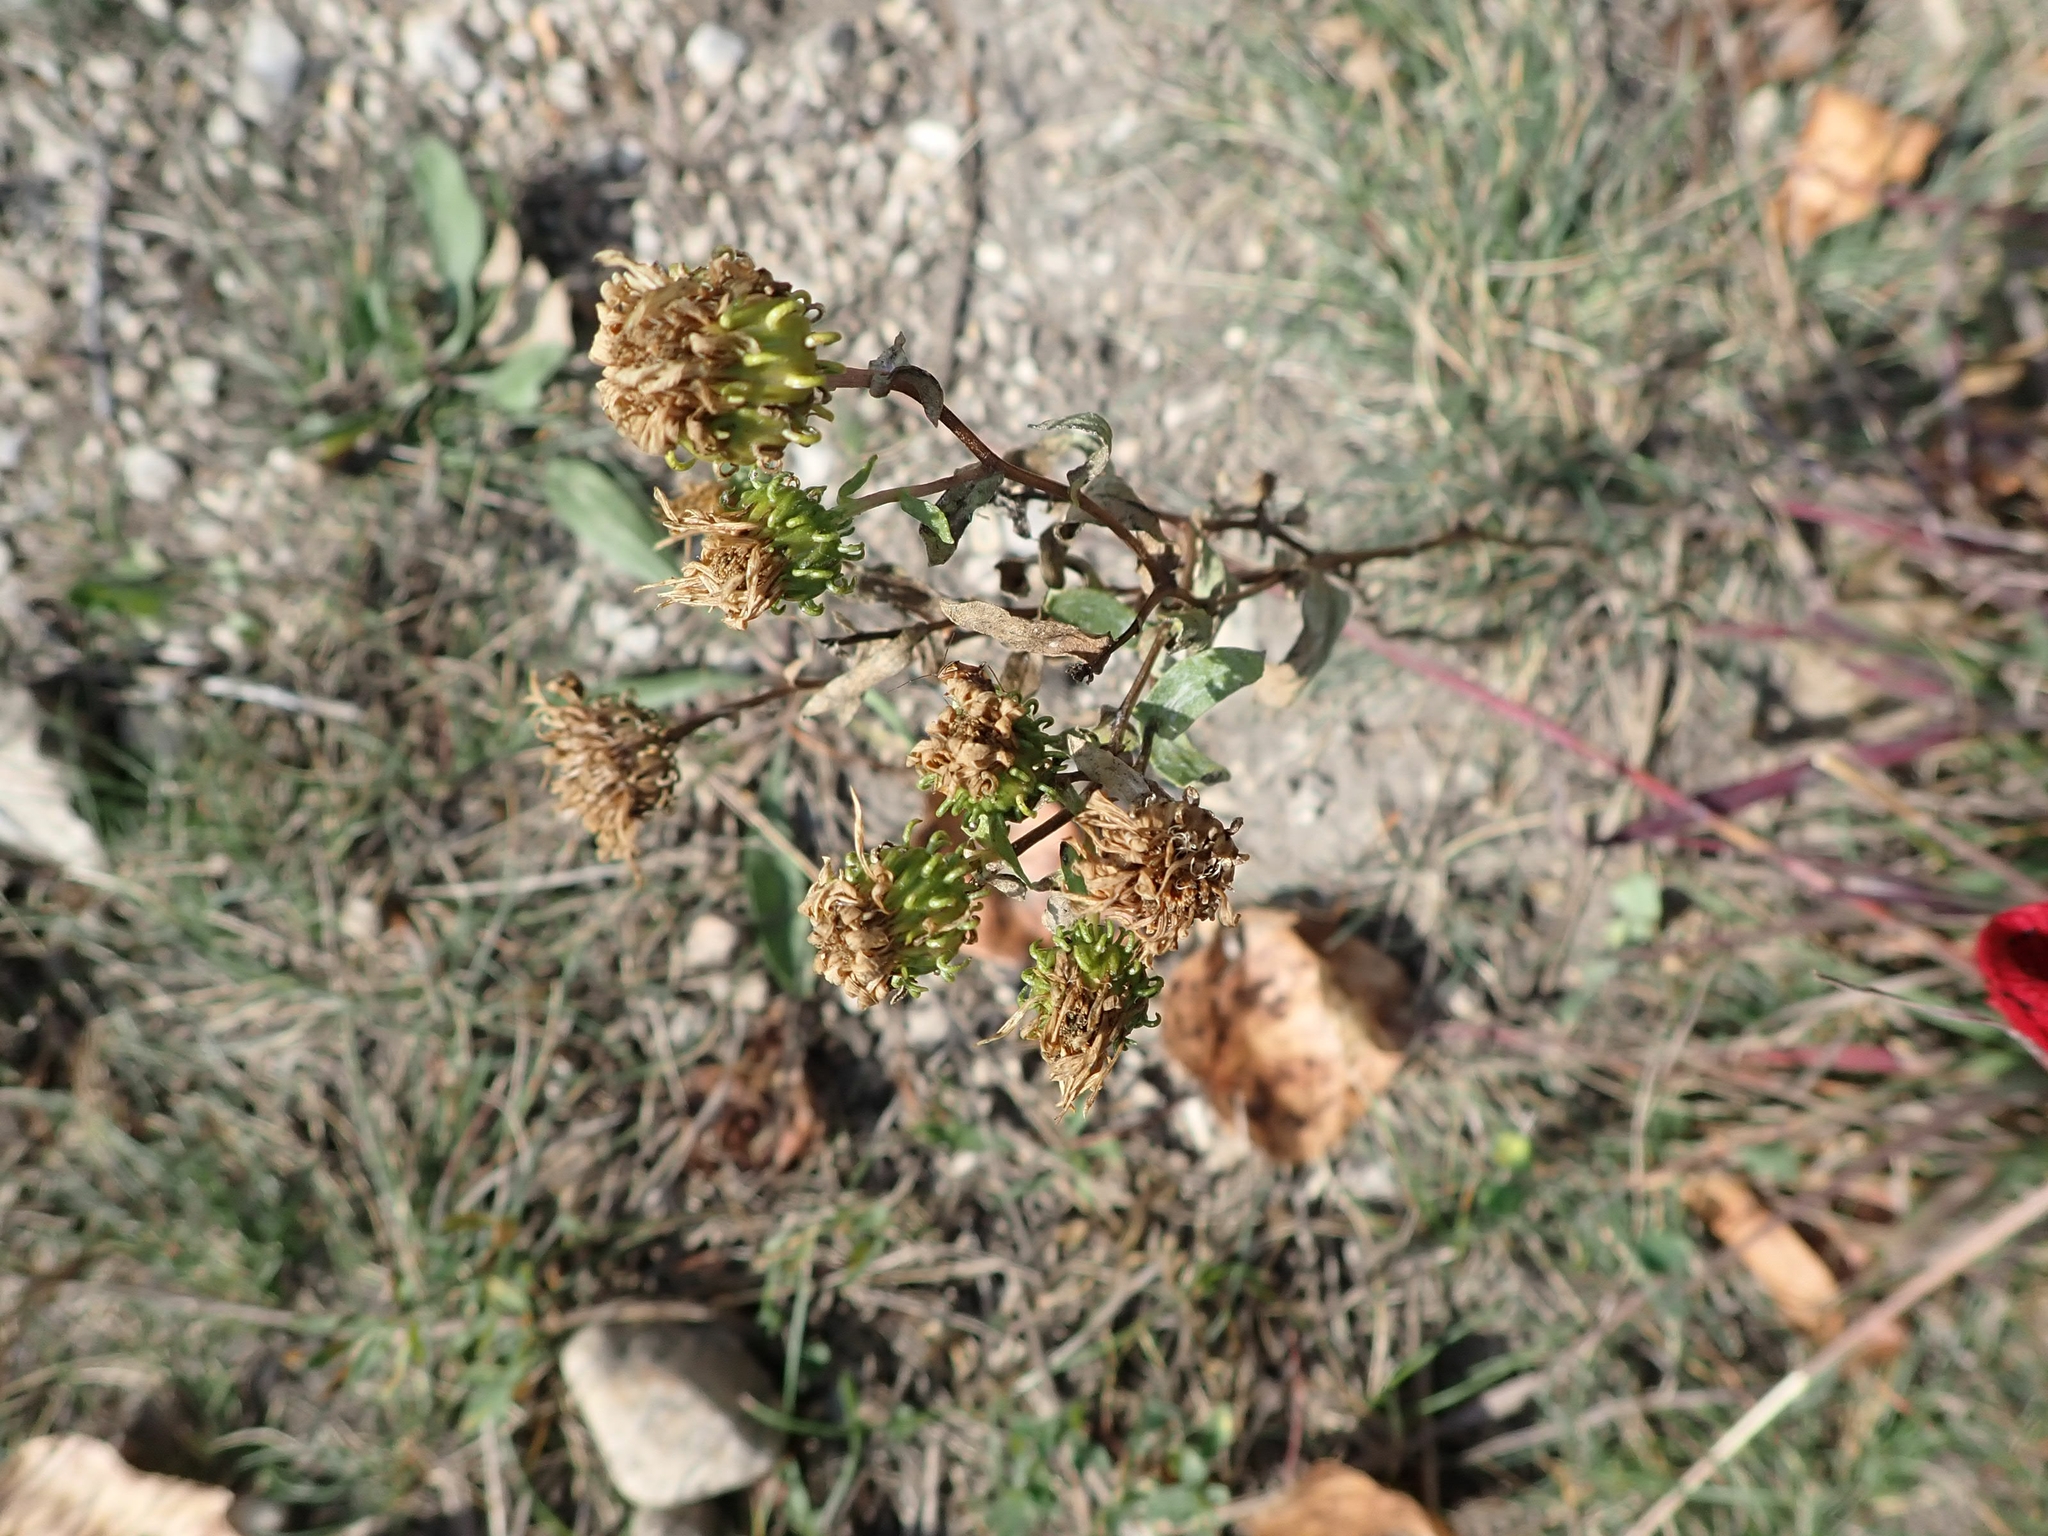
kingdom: Plantae
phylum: Tracheophyta
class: Magnoliopsida
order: Asterales
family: Asteraceae
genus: Grindelia
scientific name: Grindelia squarrosa
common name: Curly-cup gumweed
